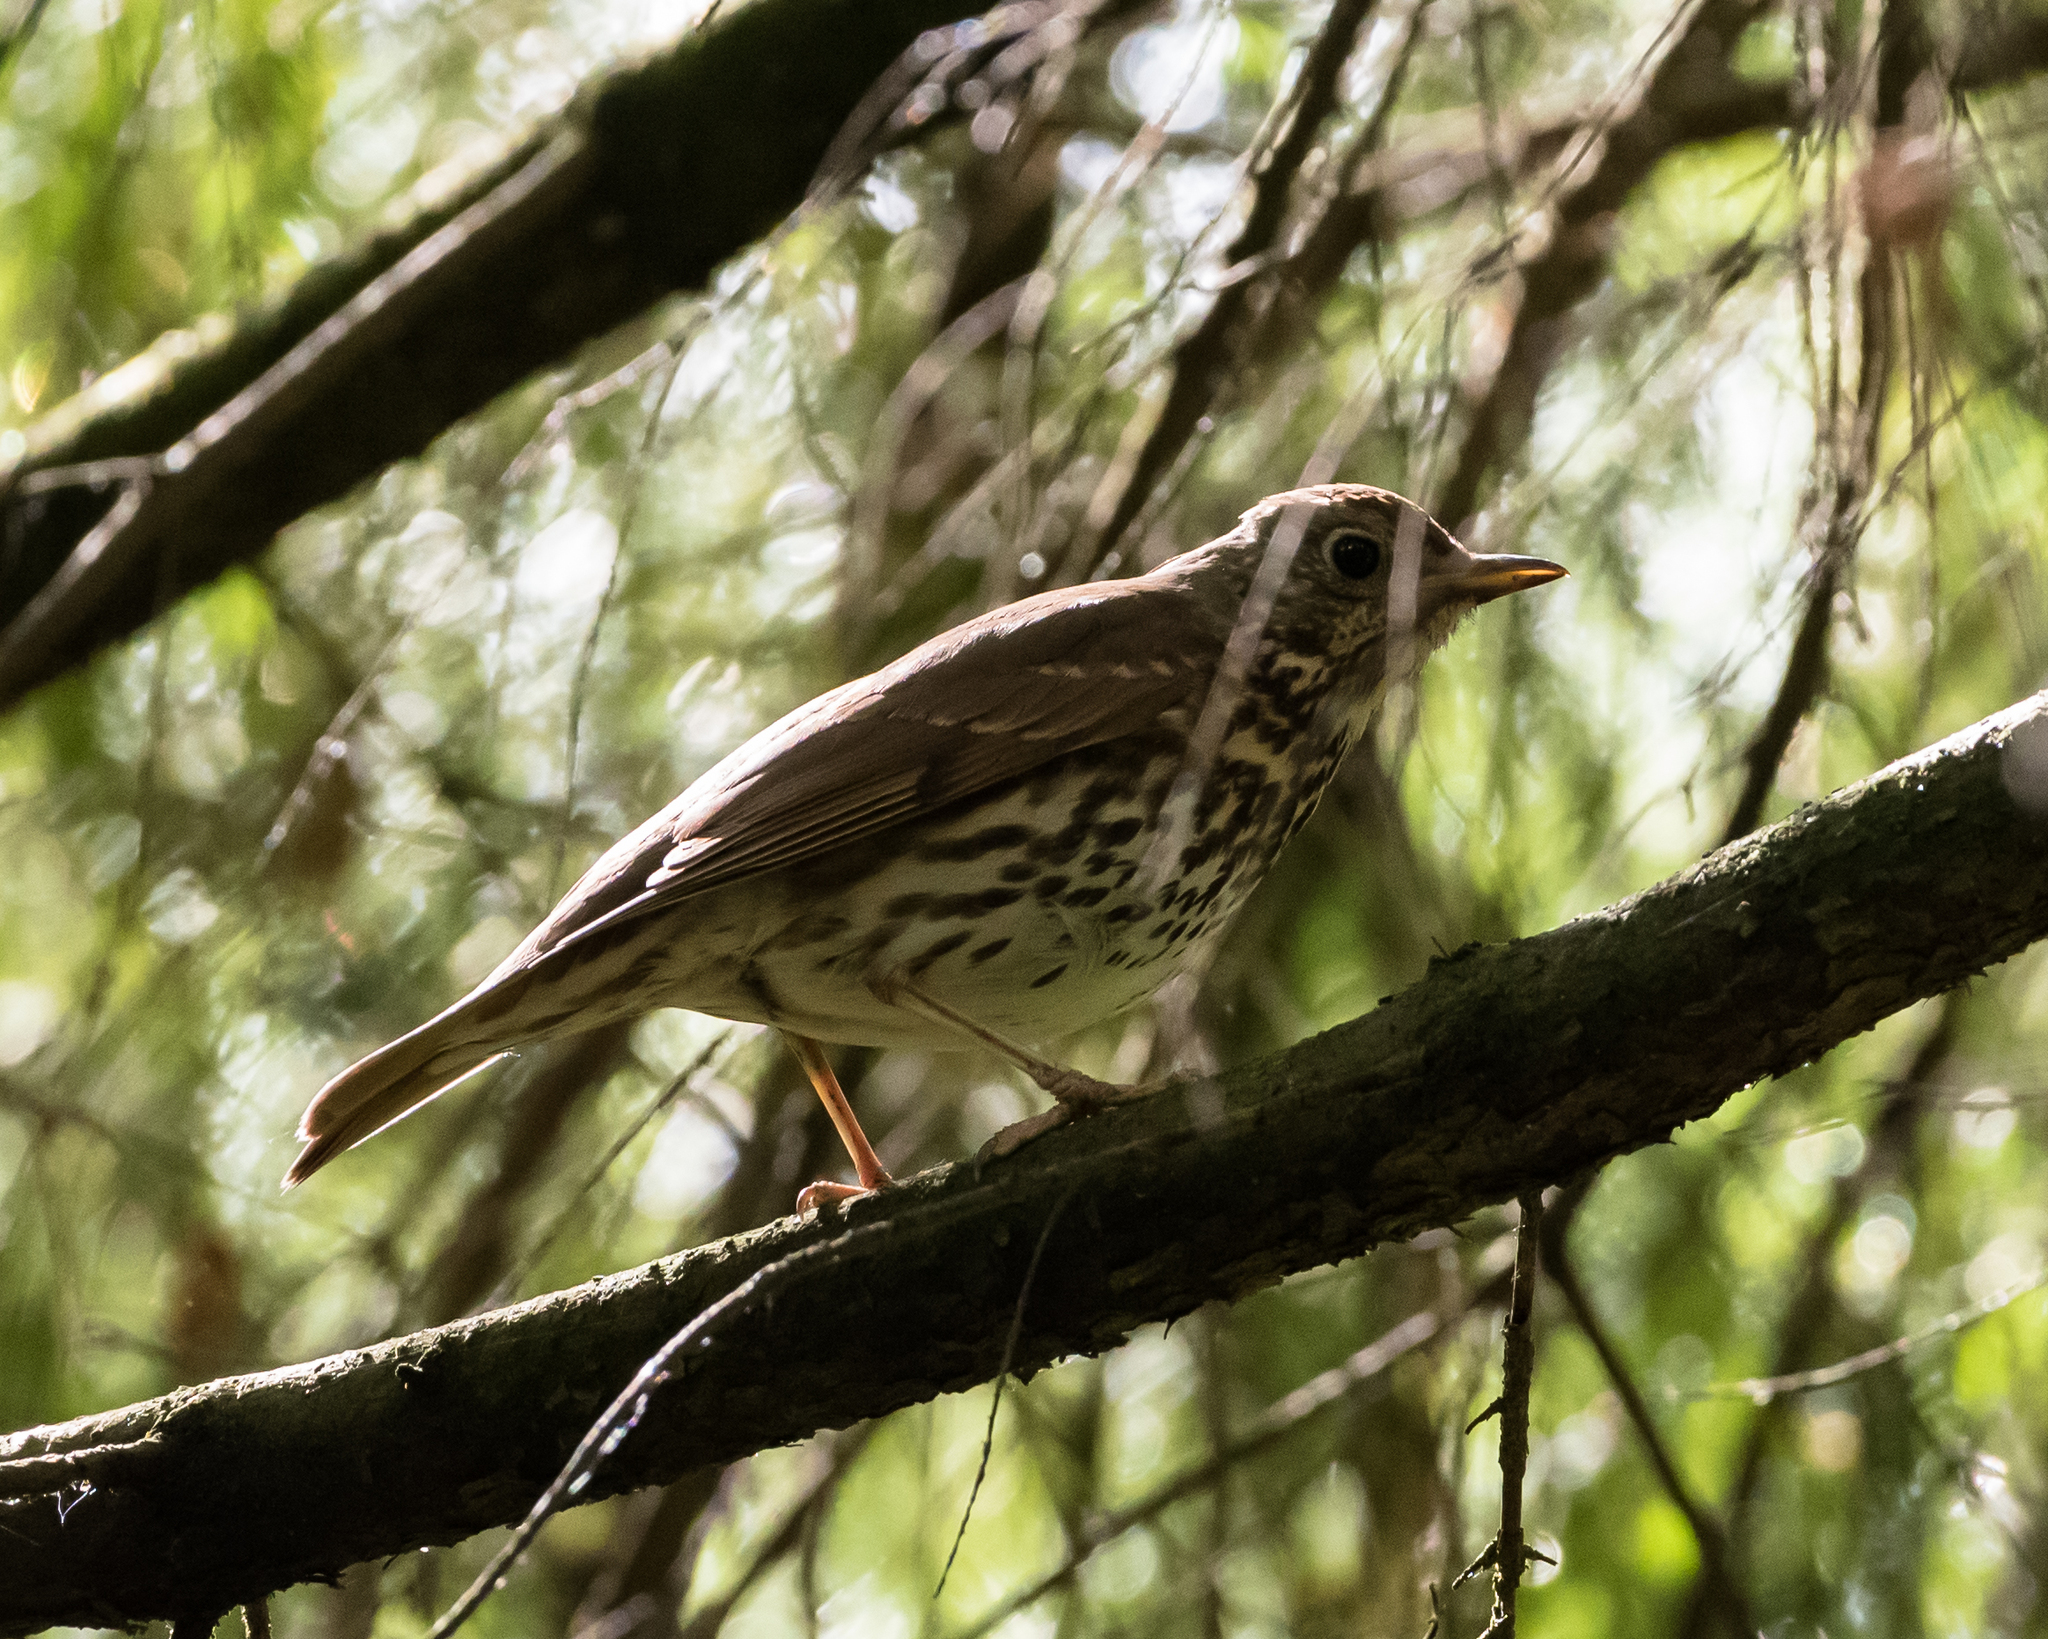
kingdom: Animalia
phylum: Chordata
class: Aves
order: Passeriformes
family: Turdidae
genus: Turdus
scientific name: Turdus philomelos
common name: Song thrush
